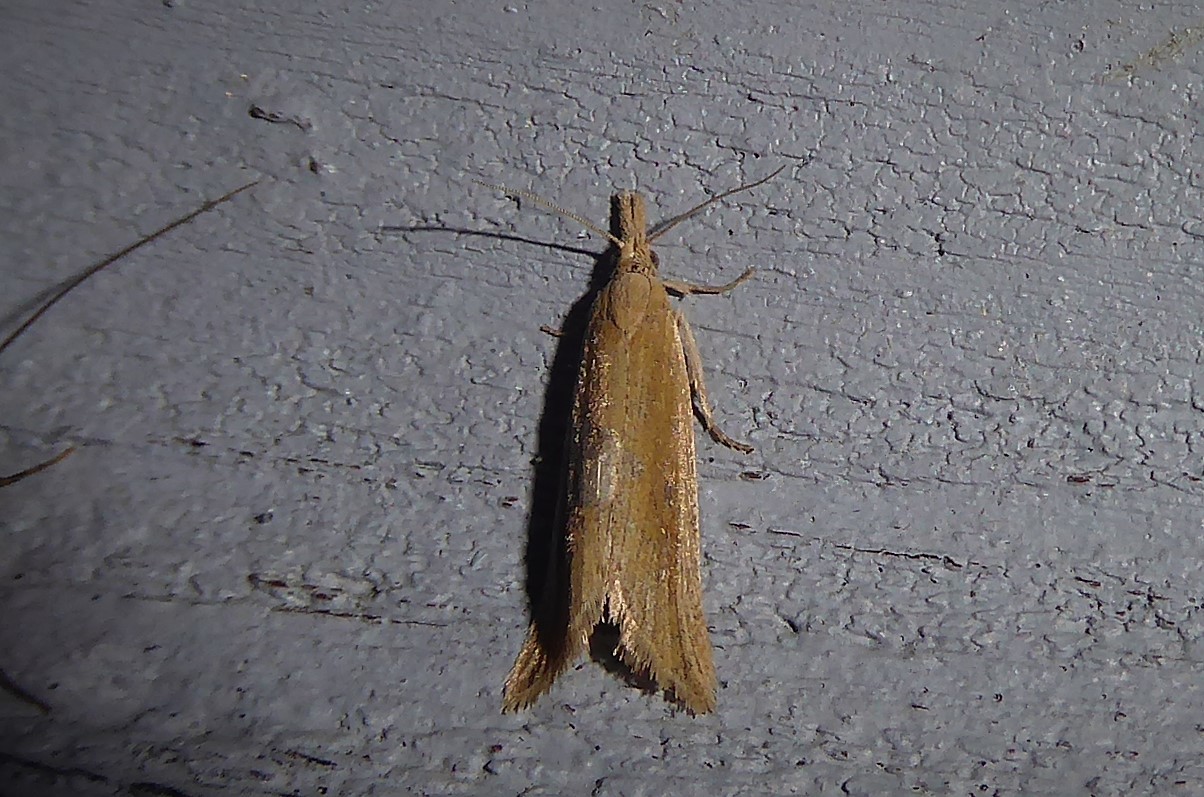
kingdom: Animalia
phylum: Arthropoda
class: Insecta
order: Lepidoptera
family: Tortricidae
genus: Bactra
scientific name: Bactra noteraula
